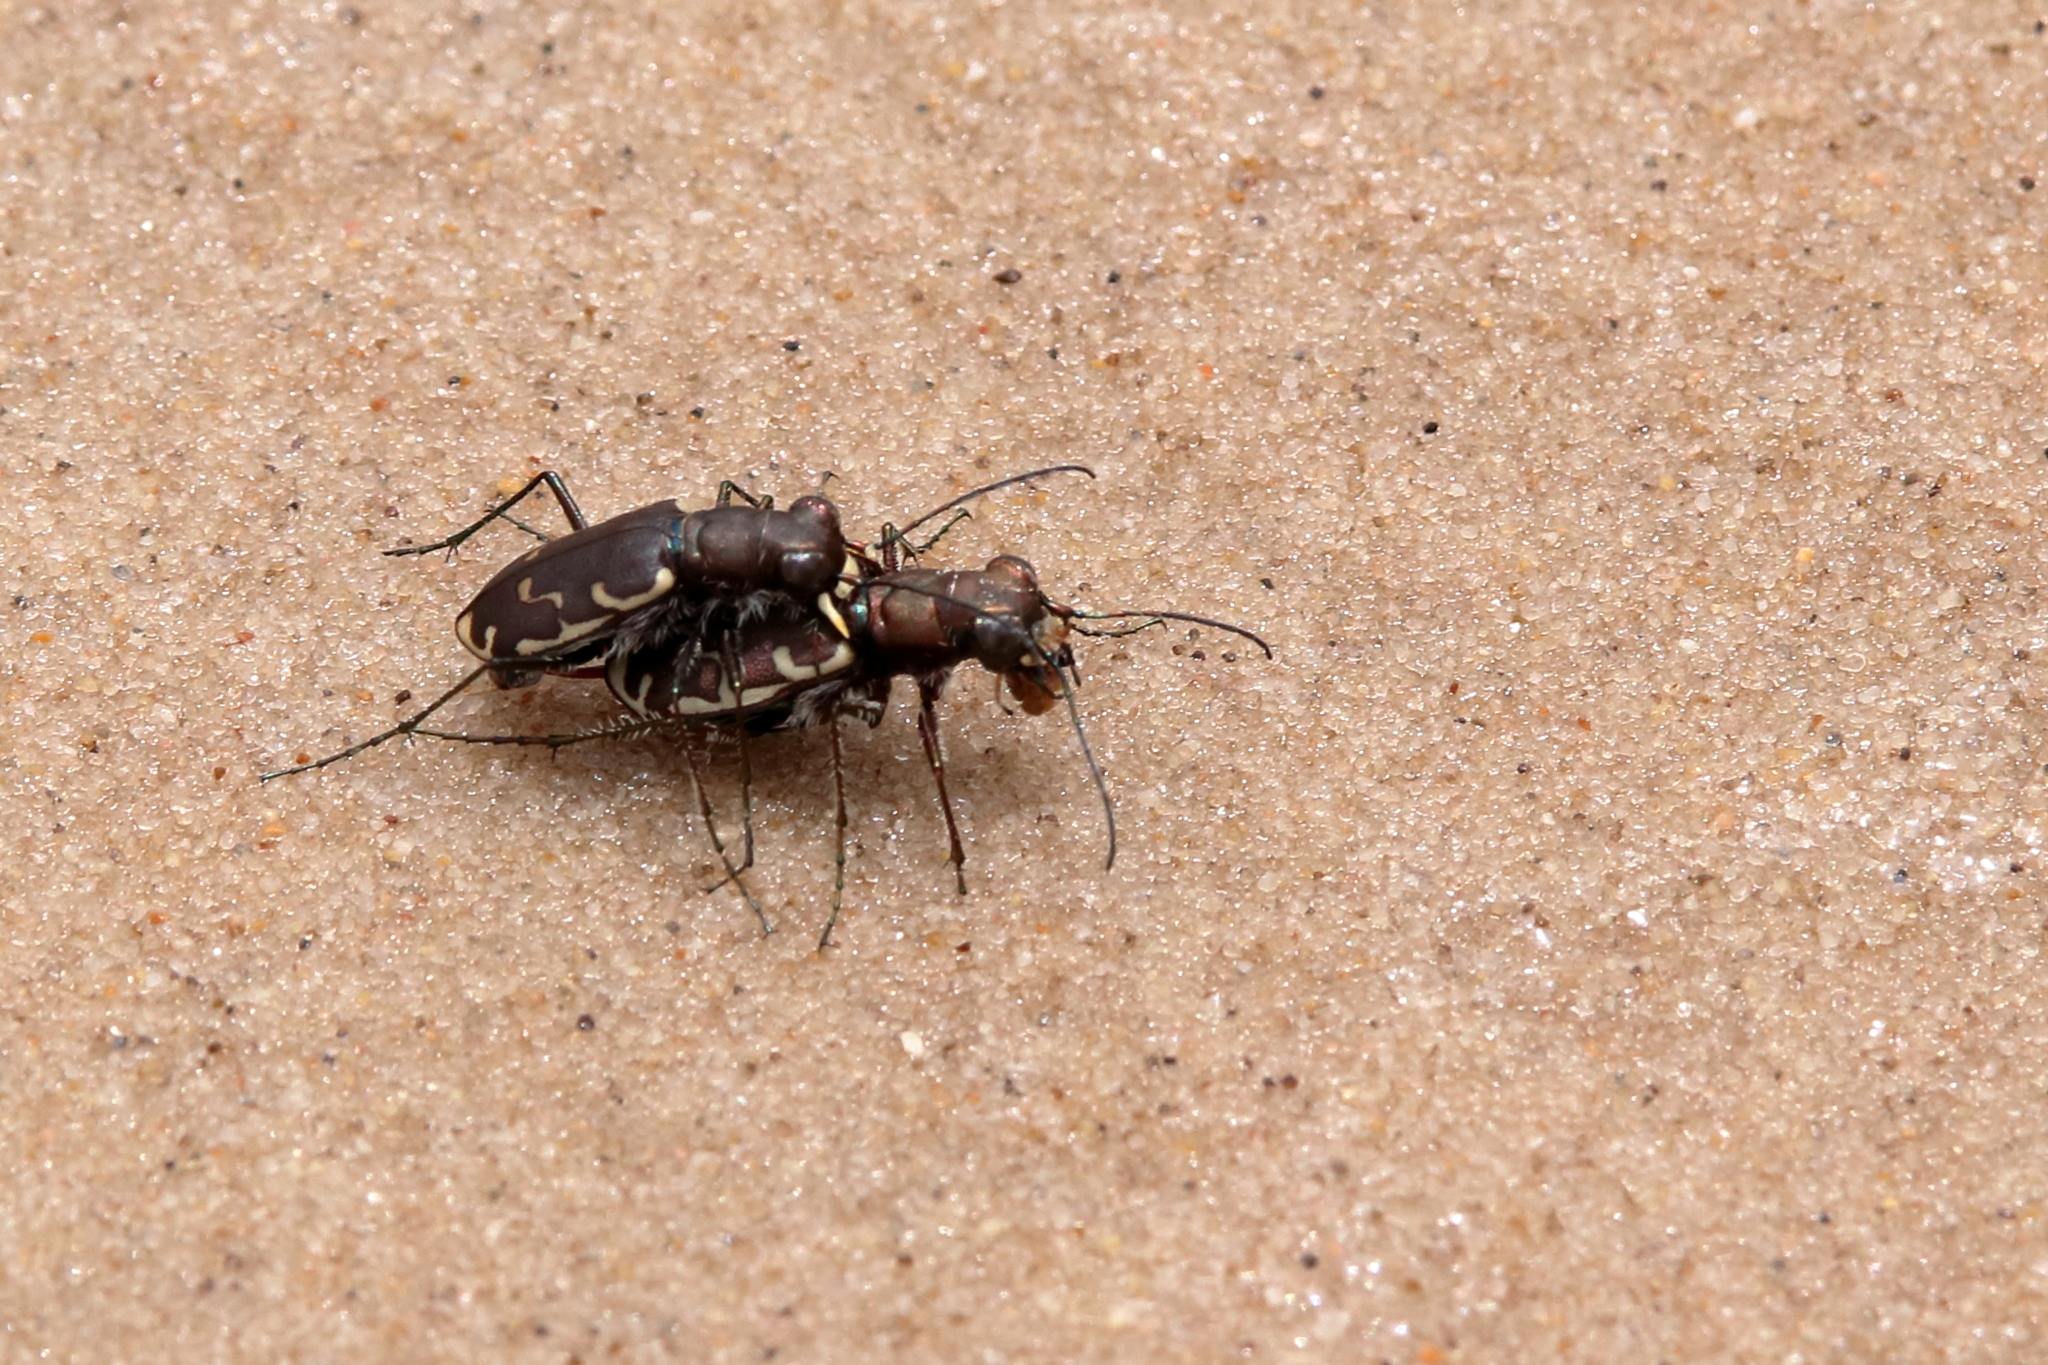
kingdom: Animalia
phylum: Arthropoda
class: Insecta
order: Coleoptera
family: Carabidae
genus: Cicindela
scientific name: Cicindela repanda
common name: Bronzed tiger beetle
